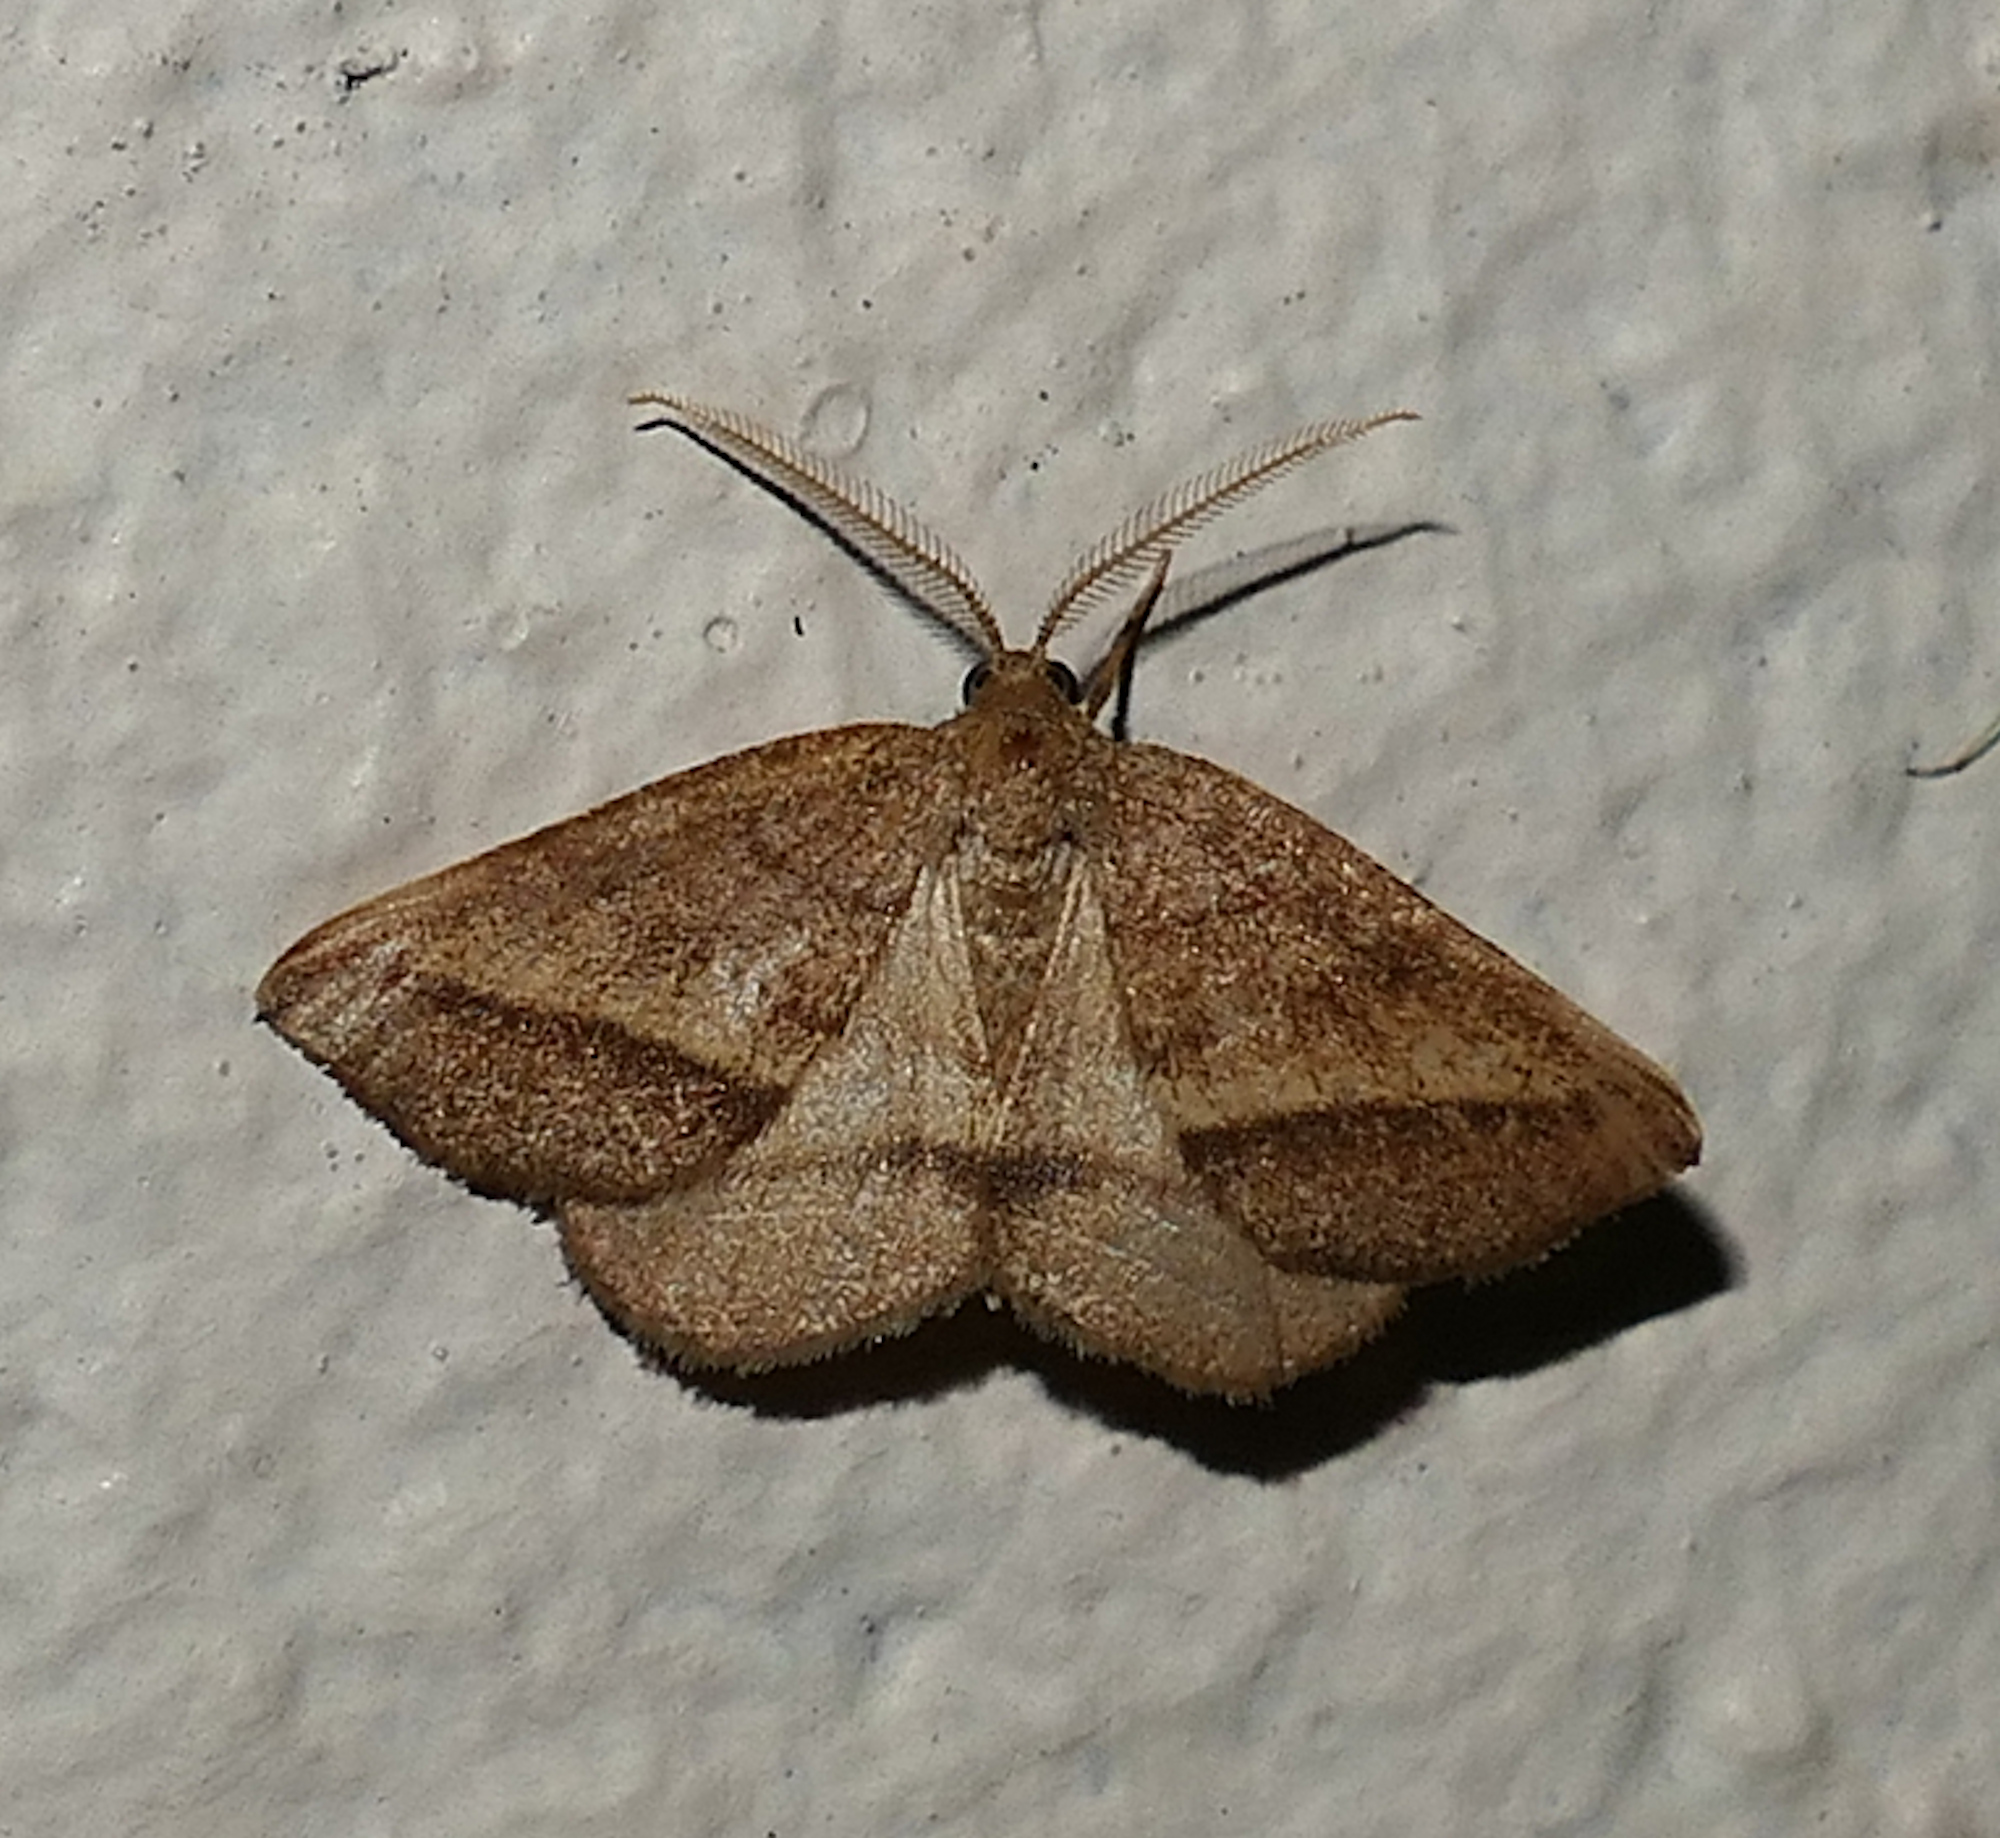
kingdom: Animalia
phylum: Arthropoda
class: Insecta
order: Lepidoptera
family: Geometridae
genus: Macaria
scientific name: Macaria varadaria
